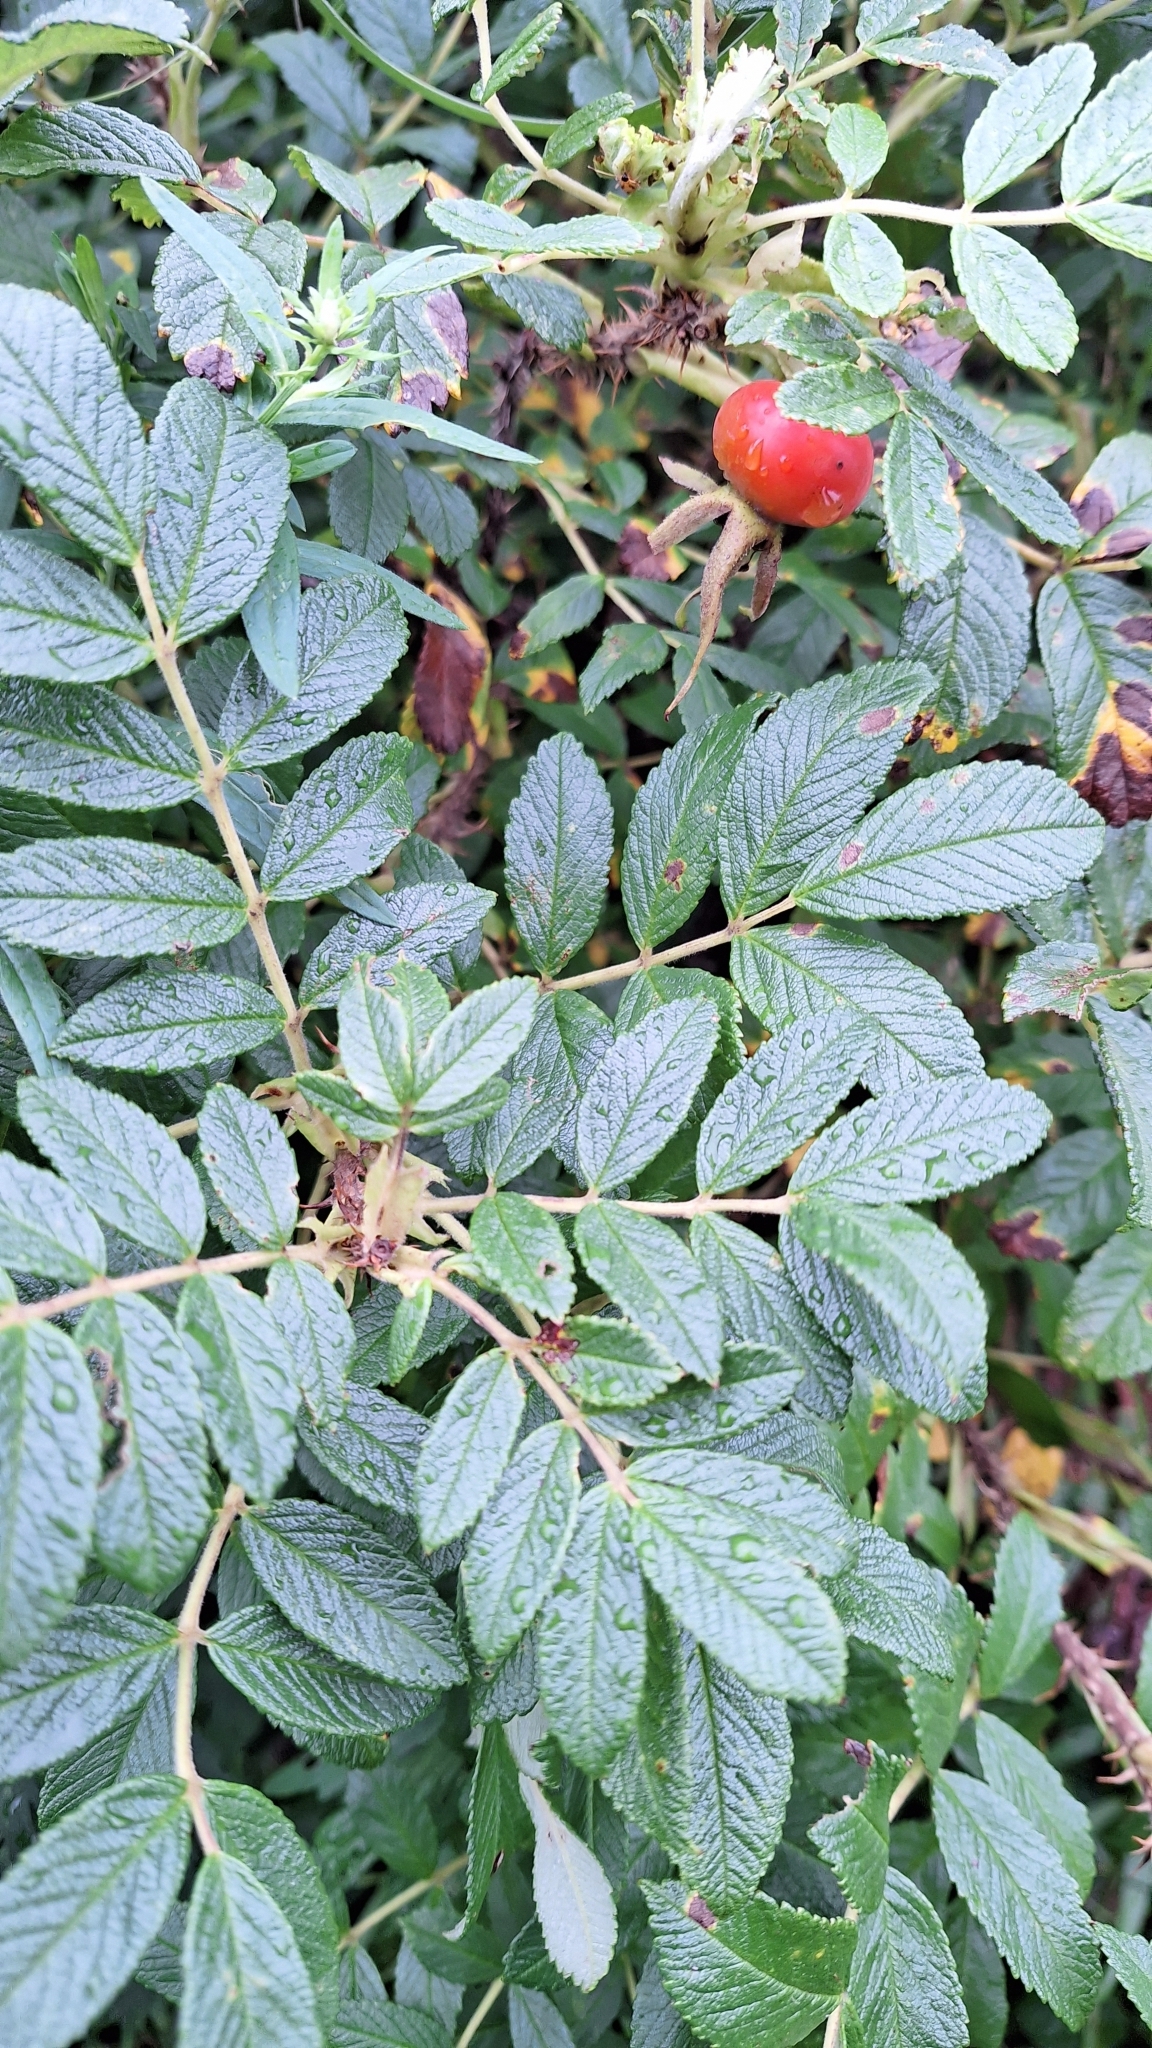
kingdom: Plantae
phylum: Tracheophyta
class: Magnoliopsida
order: Rosales
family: Rosaceae
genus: Rosa
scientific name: Rosa rugosa
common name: Japanese rose
